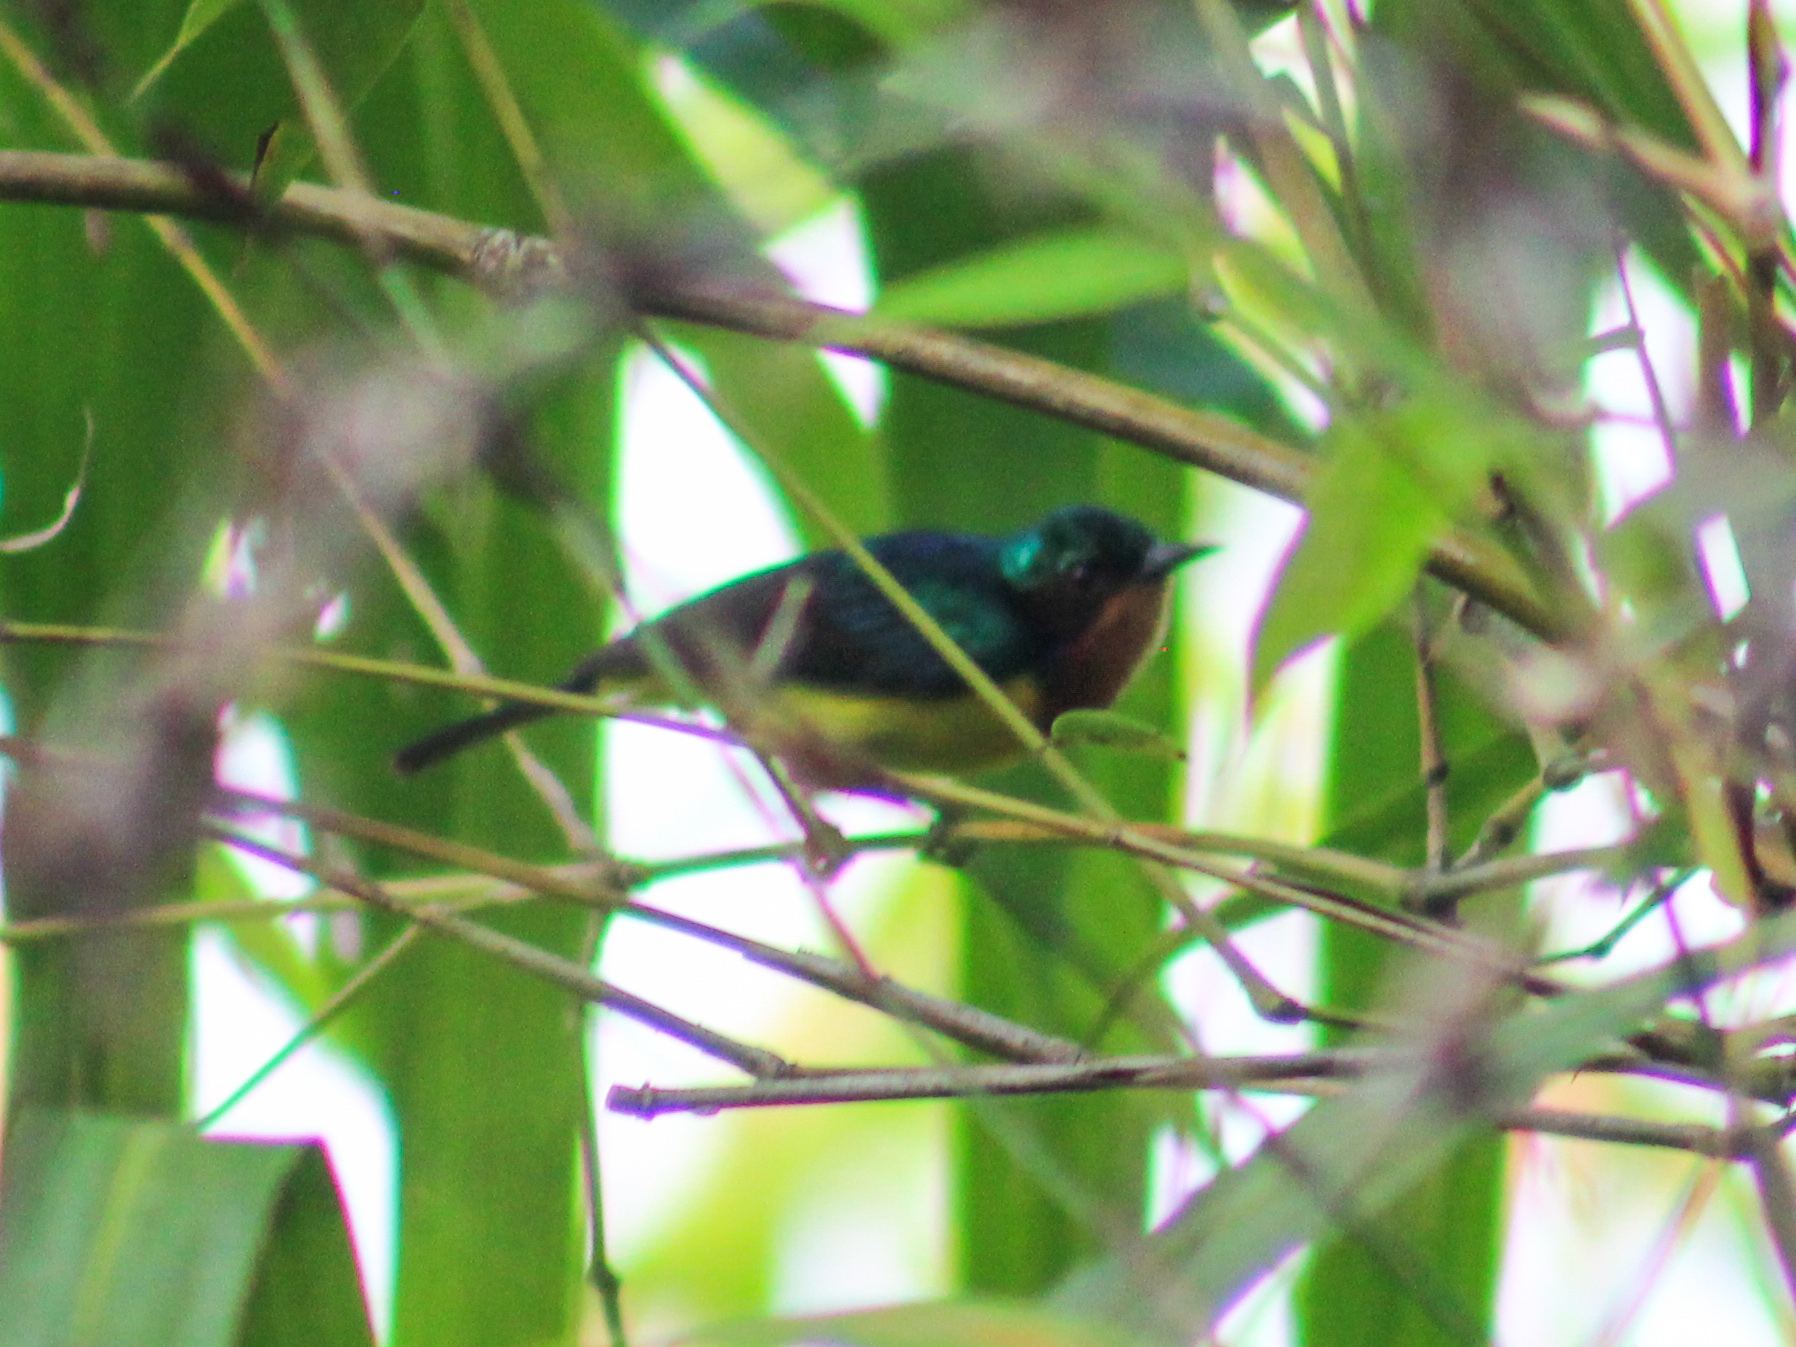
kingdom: Animalia
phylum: Chordata
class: Aves
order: Passeriformes
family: Nectariniidae
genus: Chalcoparia
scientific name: Chalcoparia singalensis
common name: Ruby-cheeked sunbird
